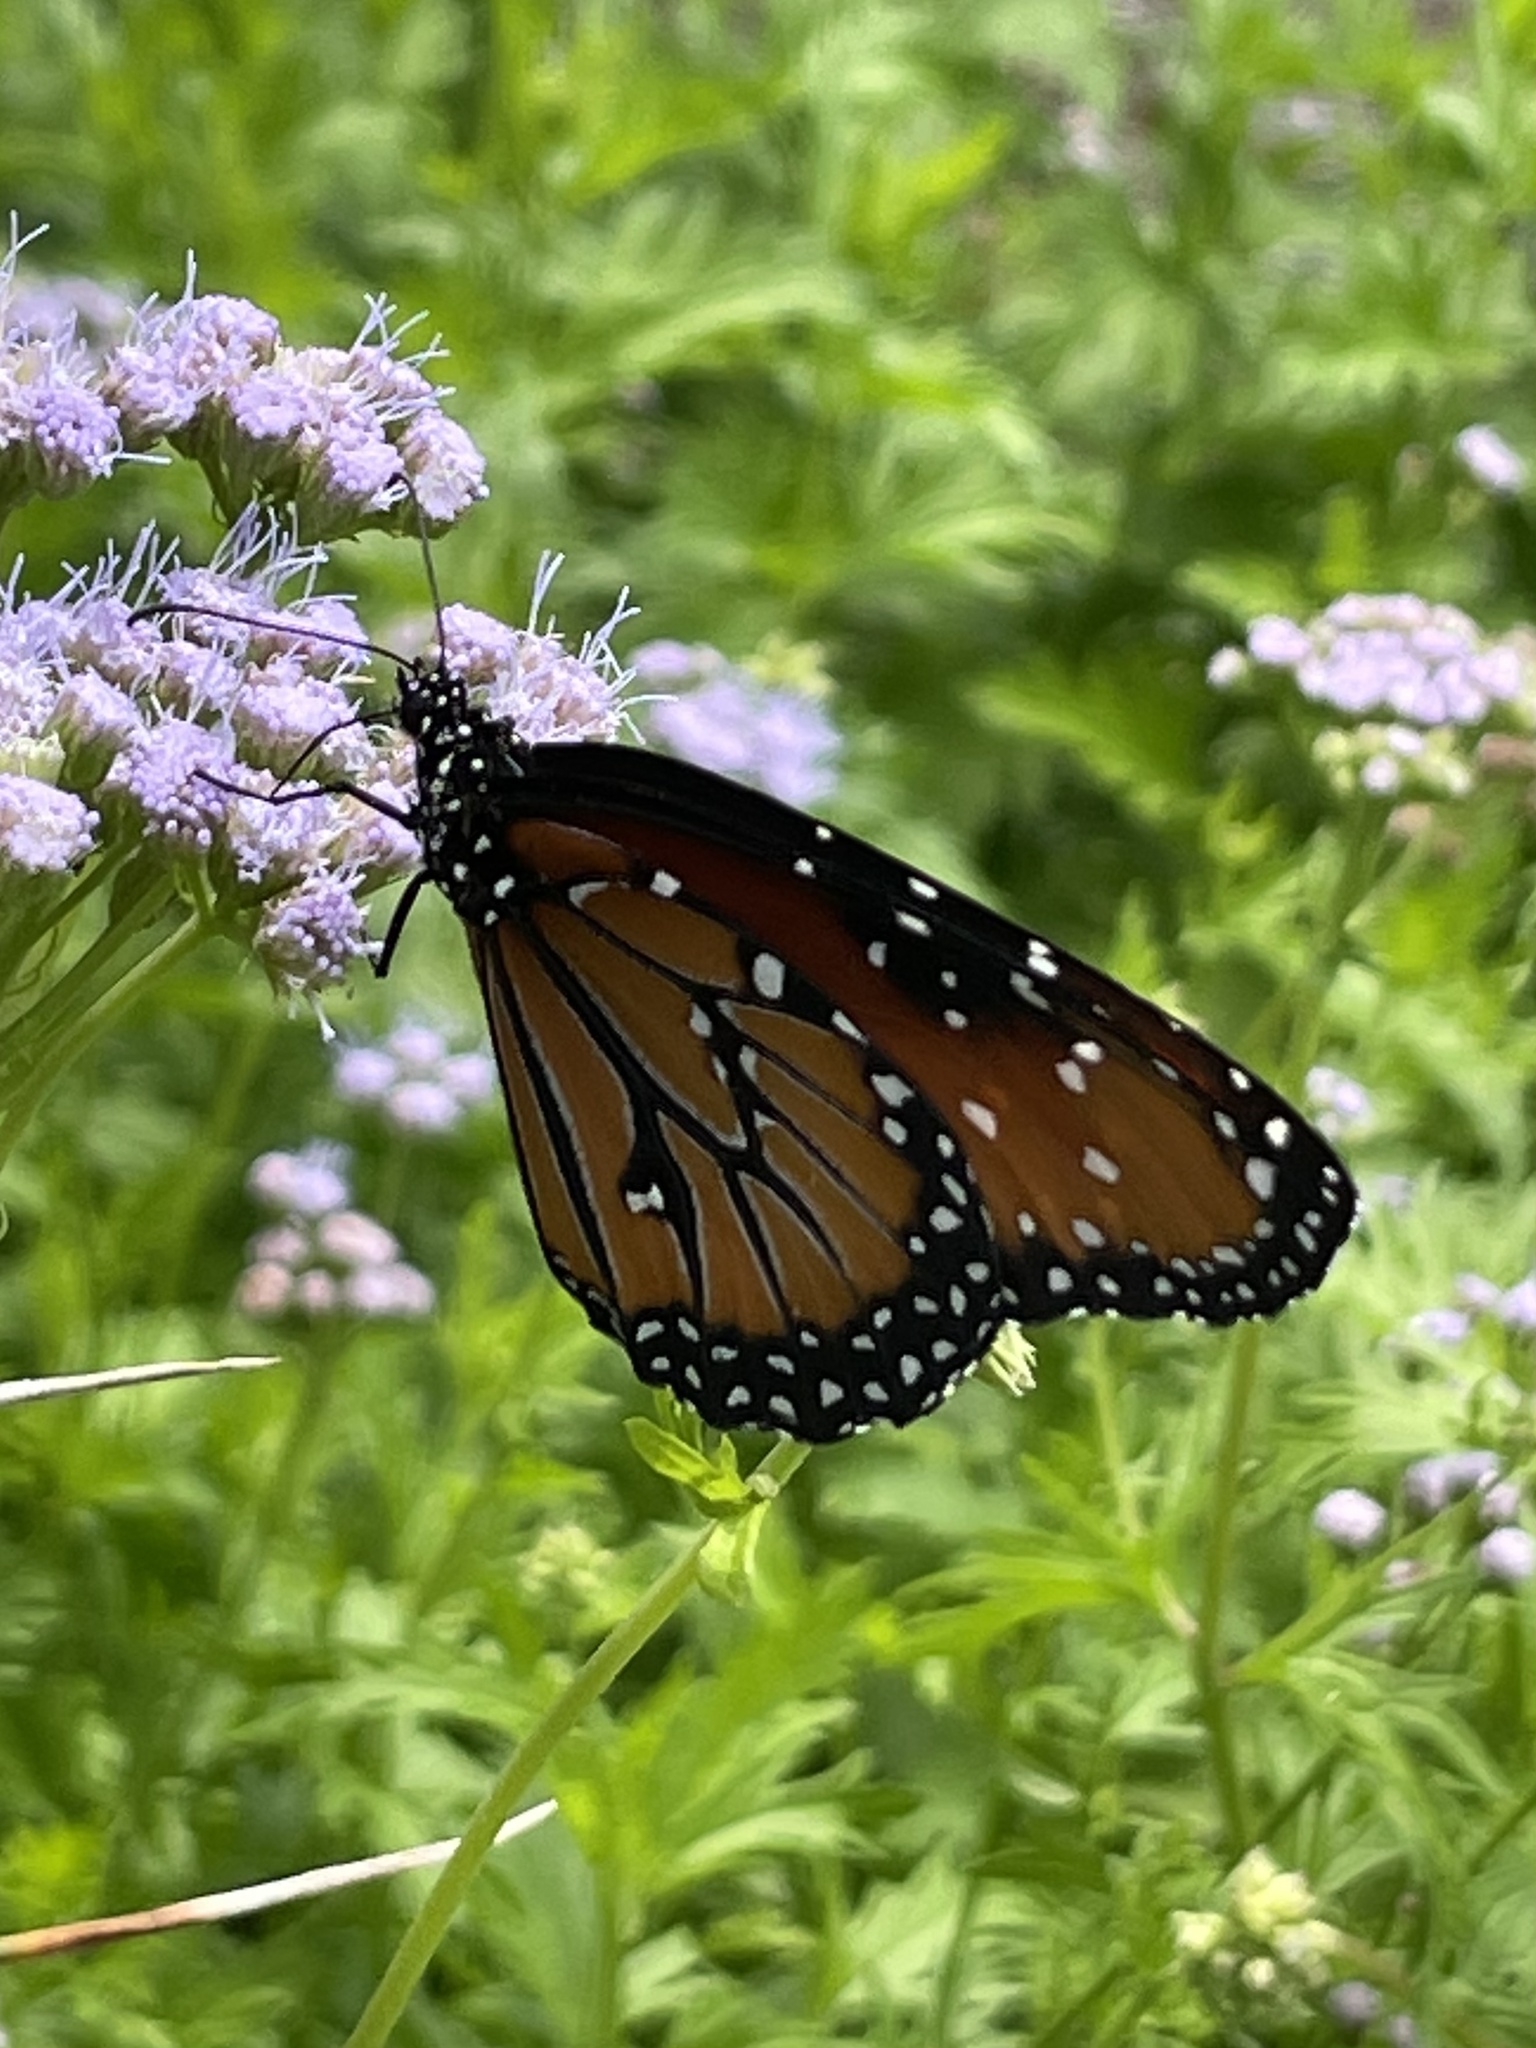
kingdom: Animalia
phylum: Arthropoda
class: Insecta
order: Lepidoptera
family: Nymphalidae
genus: Danaus
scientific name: Danaus gilippus
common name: Queen
